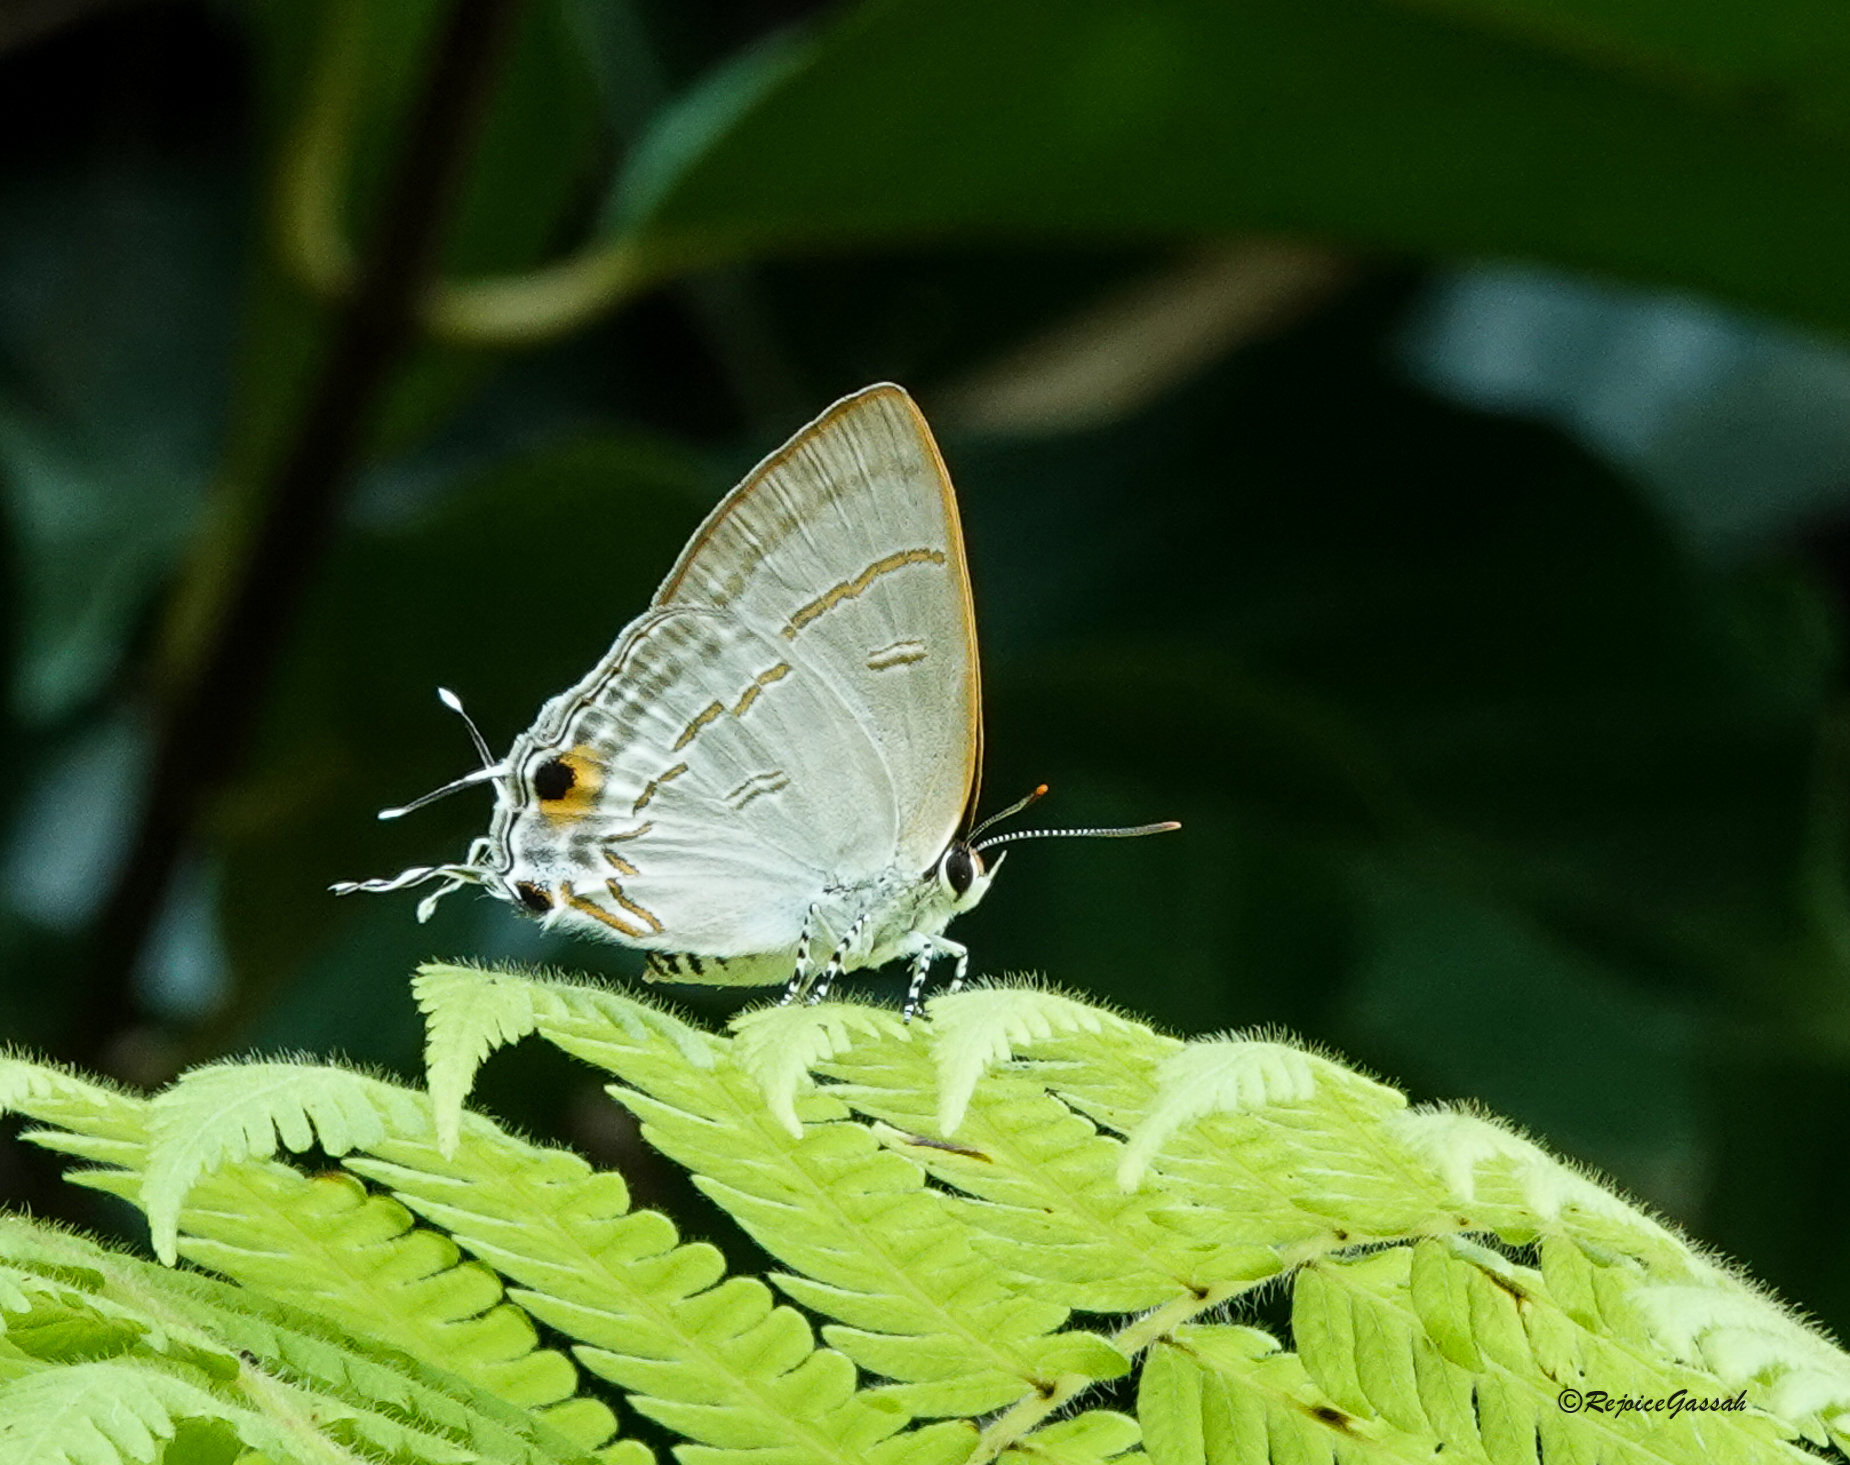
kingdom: Animalia
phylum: Arthropoda
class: Insecta
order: Lepidoptera
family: Lycaenidae
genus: Hypolycaena
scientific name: Hypolycaena erylus
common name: Common tit
